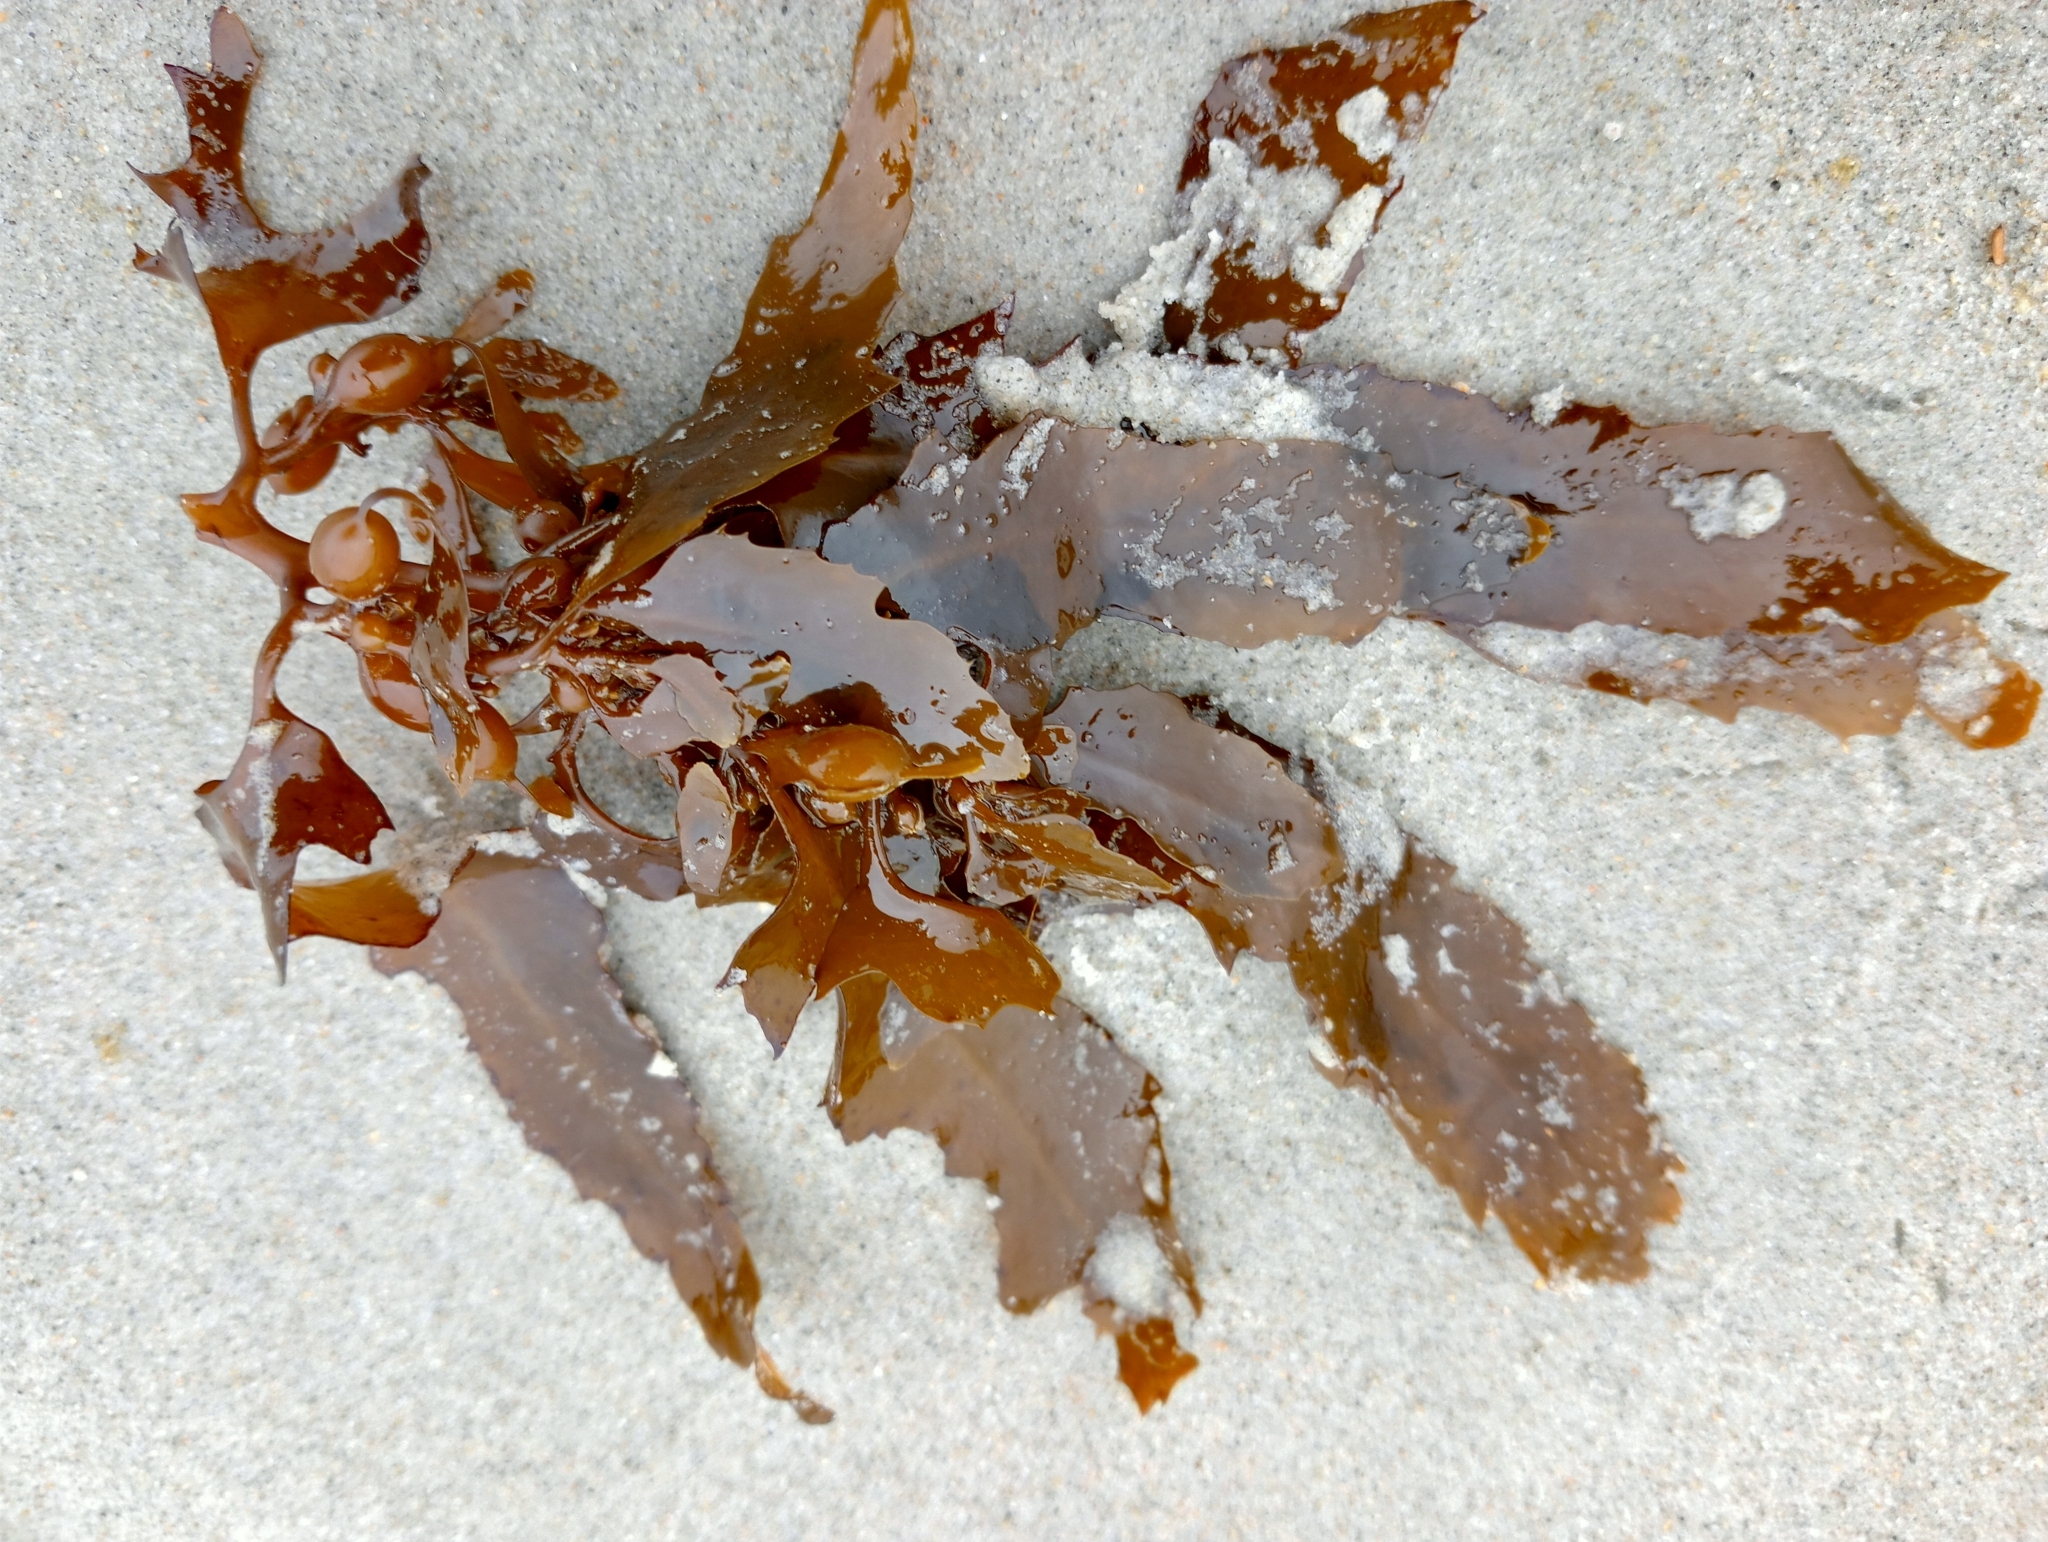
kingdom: Chromista
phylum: Ochrophyta
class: Phaeophyceae
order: Fucales
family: Sargassaceae
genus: Carpophyllum
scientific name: Carpophyllum flexuosum
